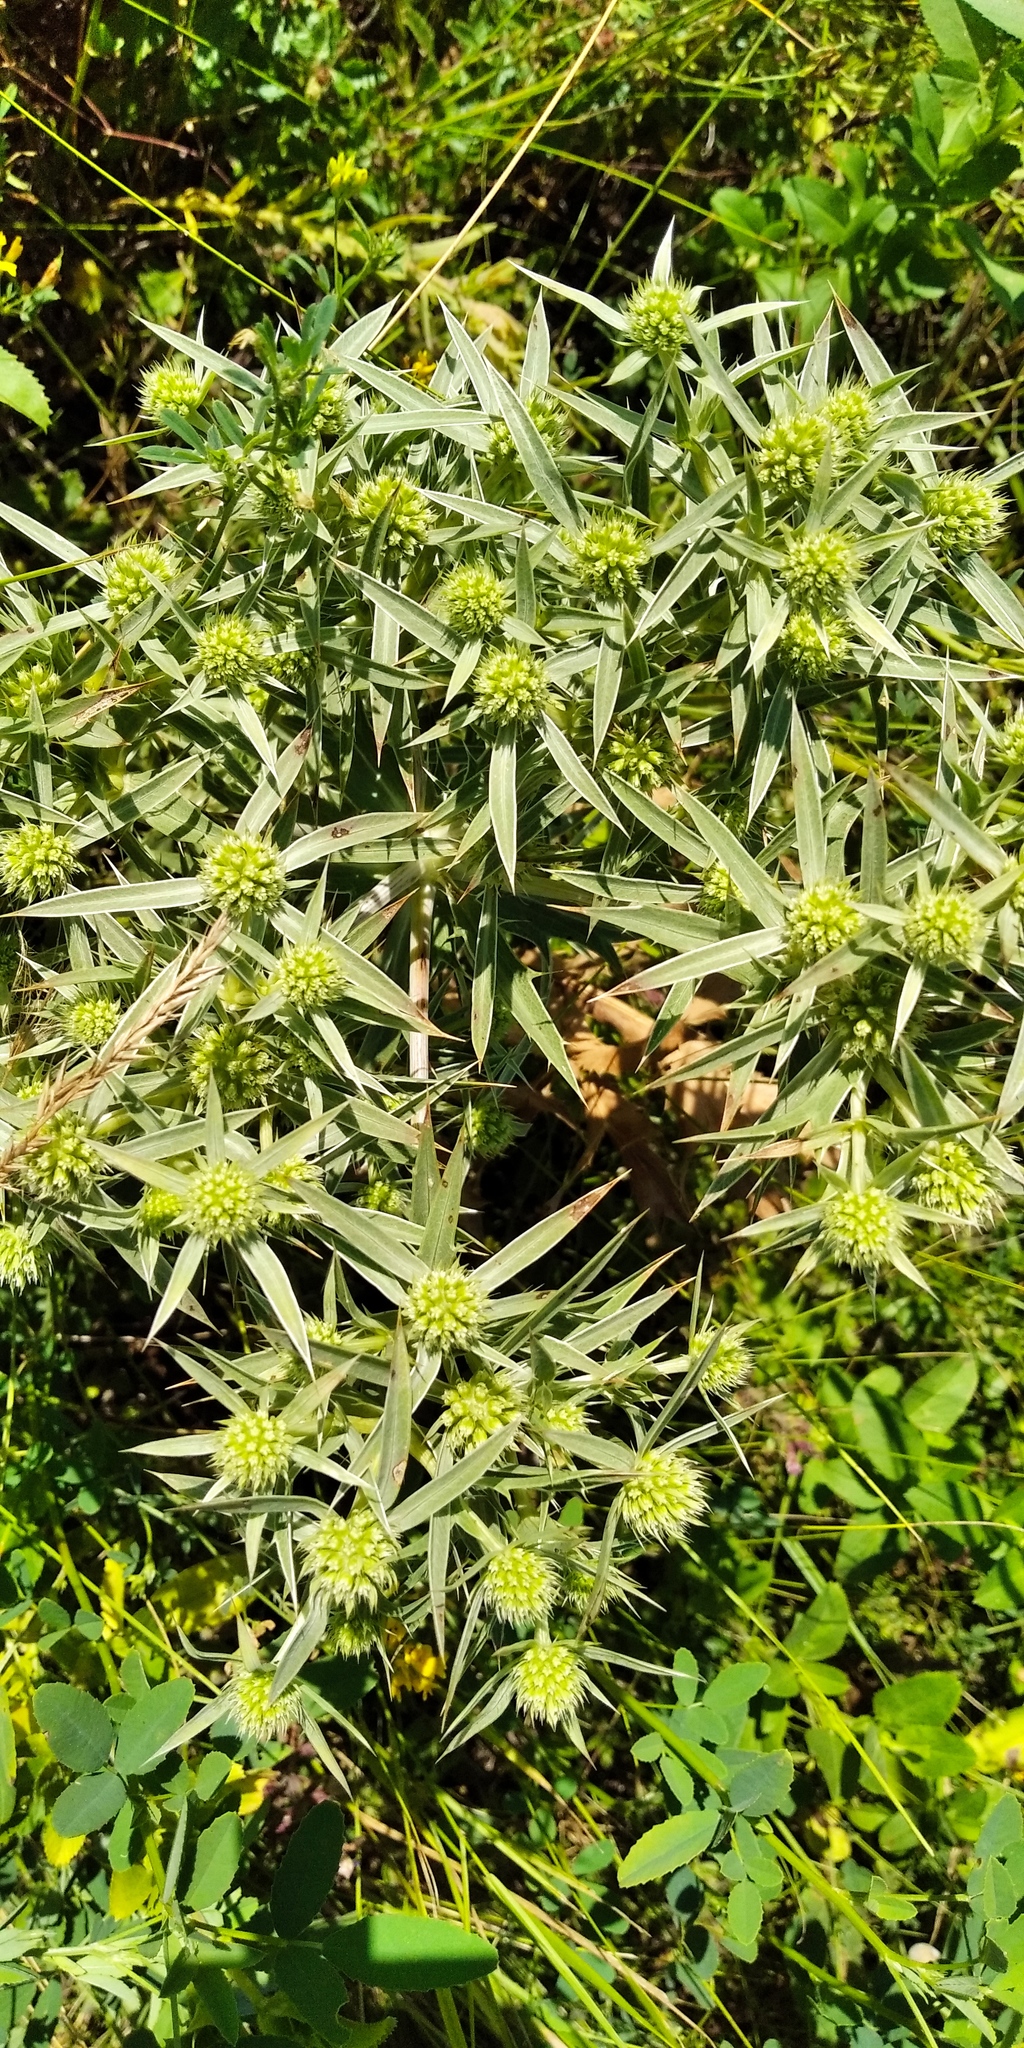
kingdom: Plantae
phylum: Tracheophyta
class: Magnoliopsida
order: Apiales
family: Apiaceae
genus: Eryngium
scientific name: Eryngium campestre
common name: Field eryngo
